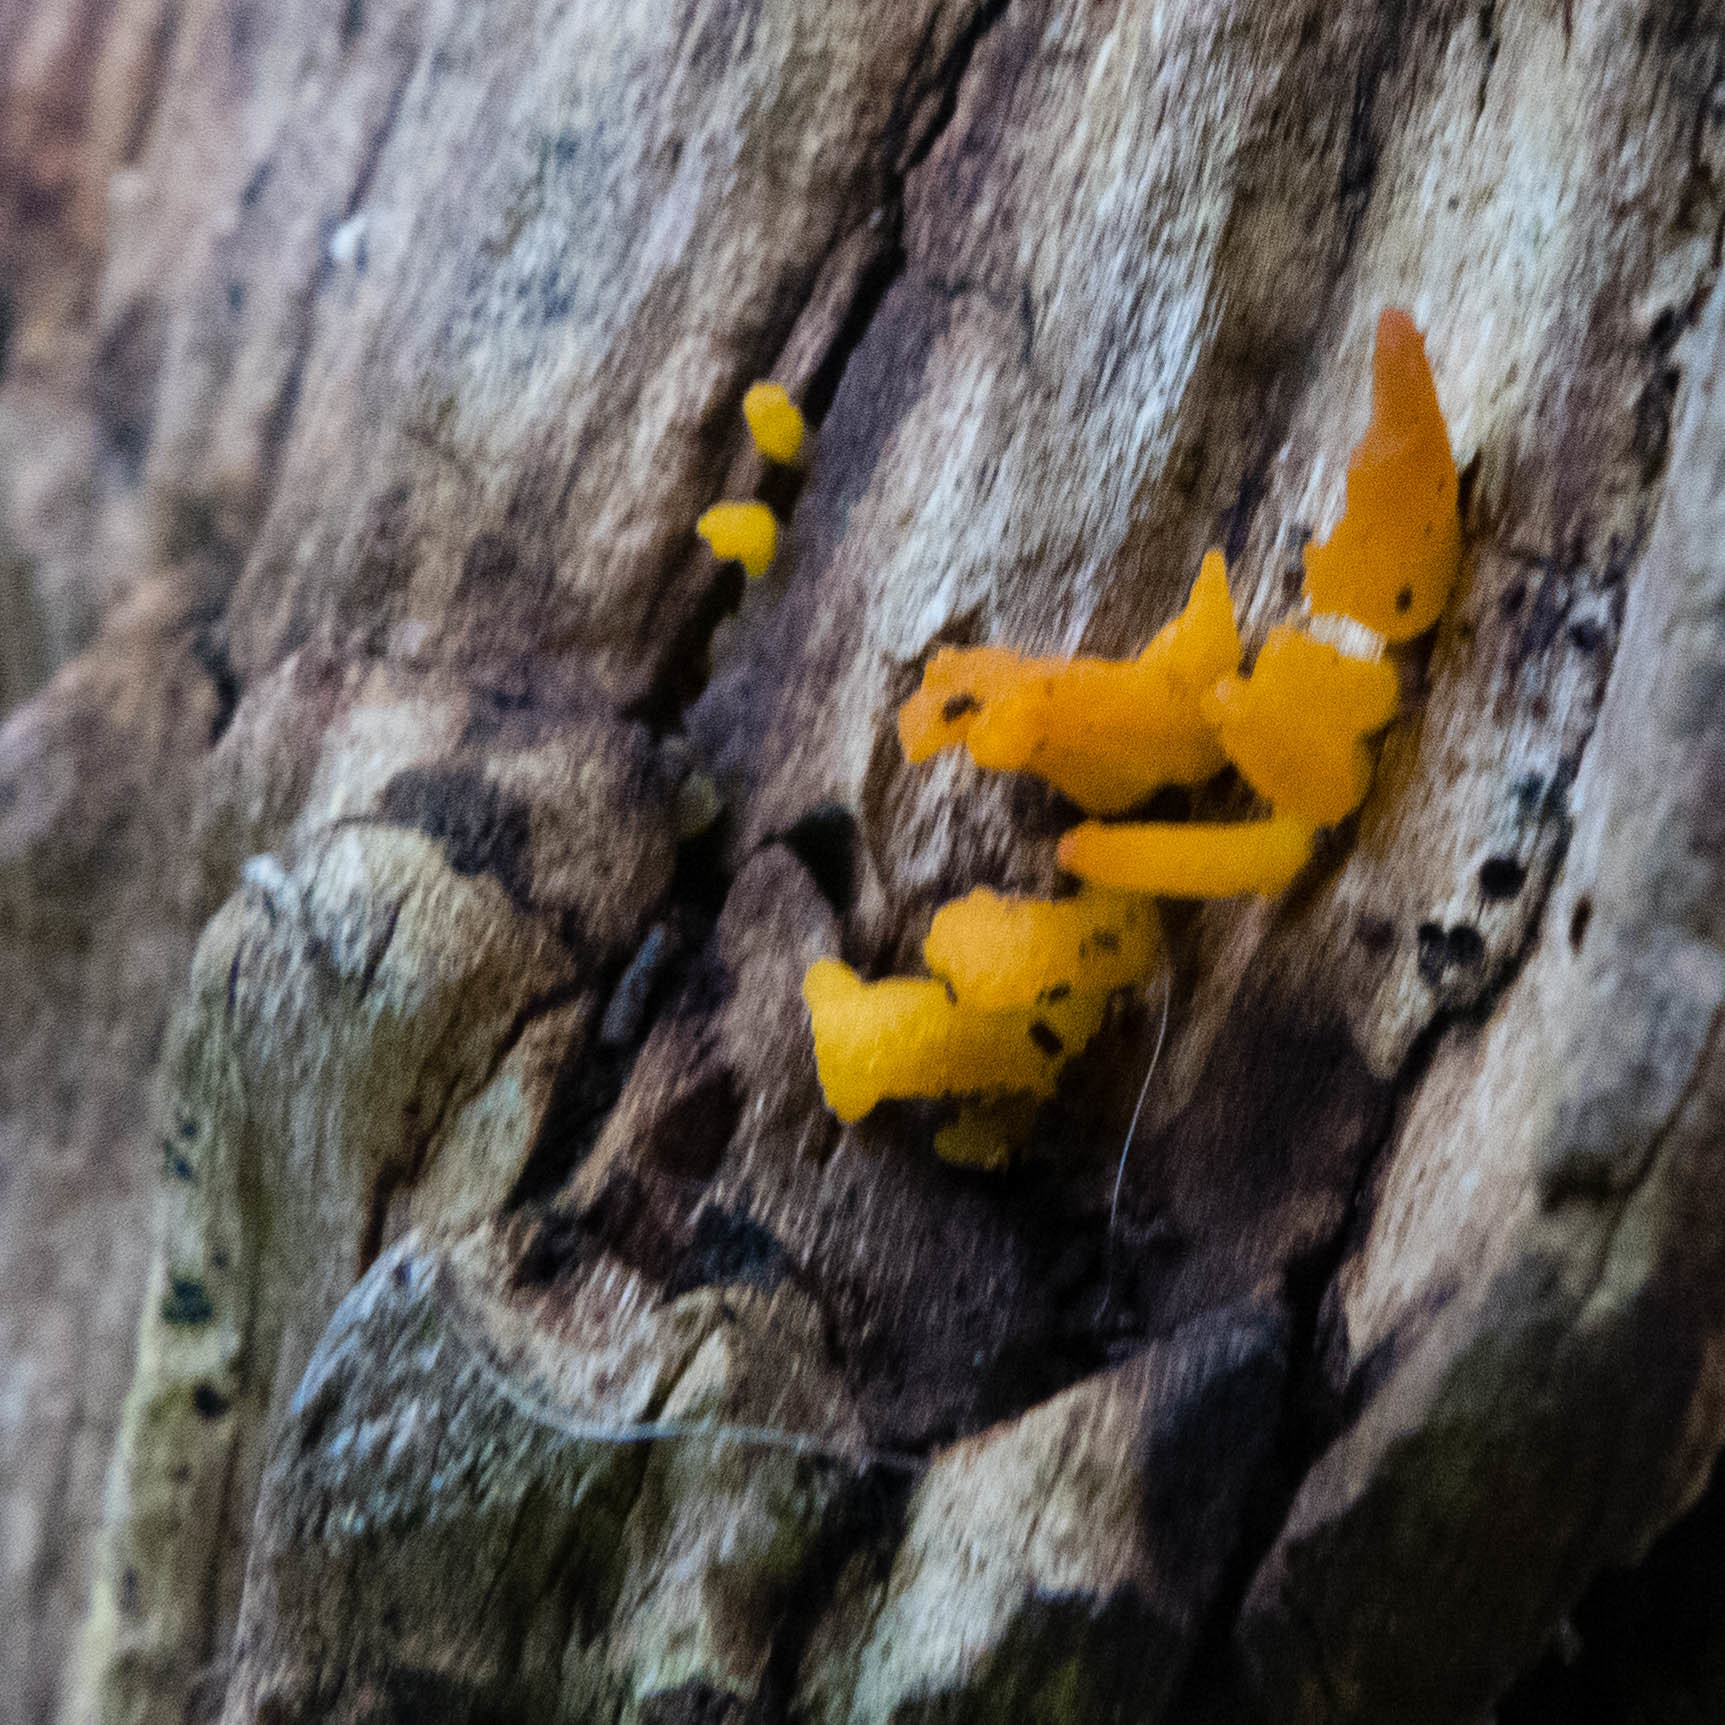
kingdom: Fungi
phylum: Basidiomycota
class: Dacrymycetes
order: Dacrymycetales
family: Dacrymycetaceae
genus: Calocera
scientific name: Calocera cornea
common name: Small stagshorn
